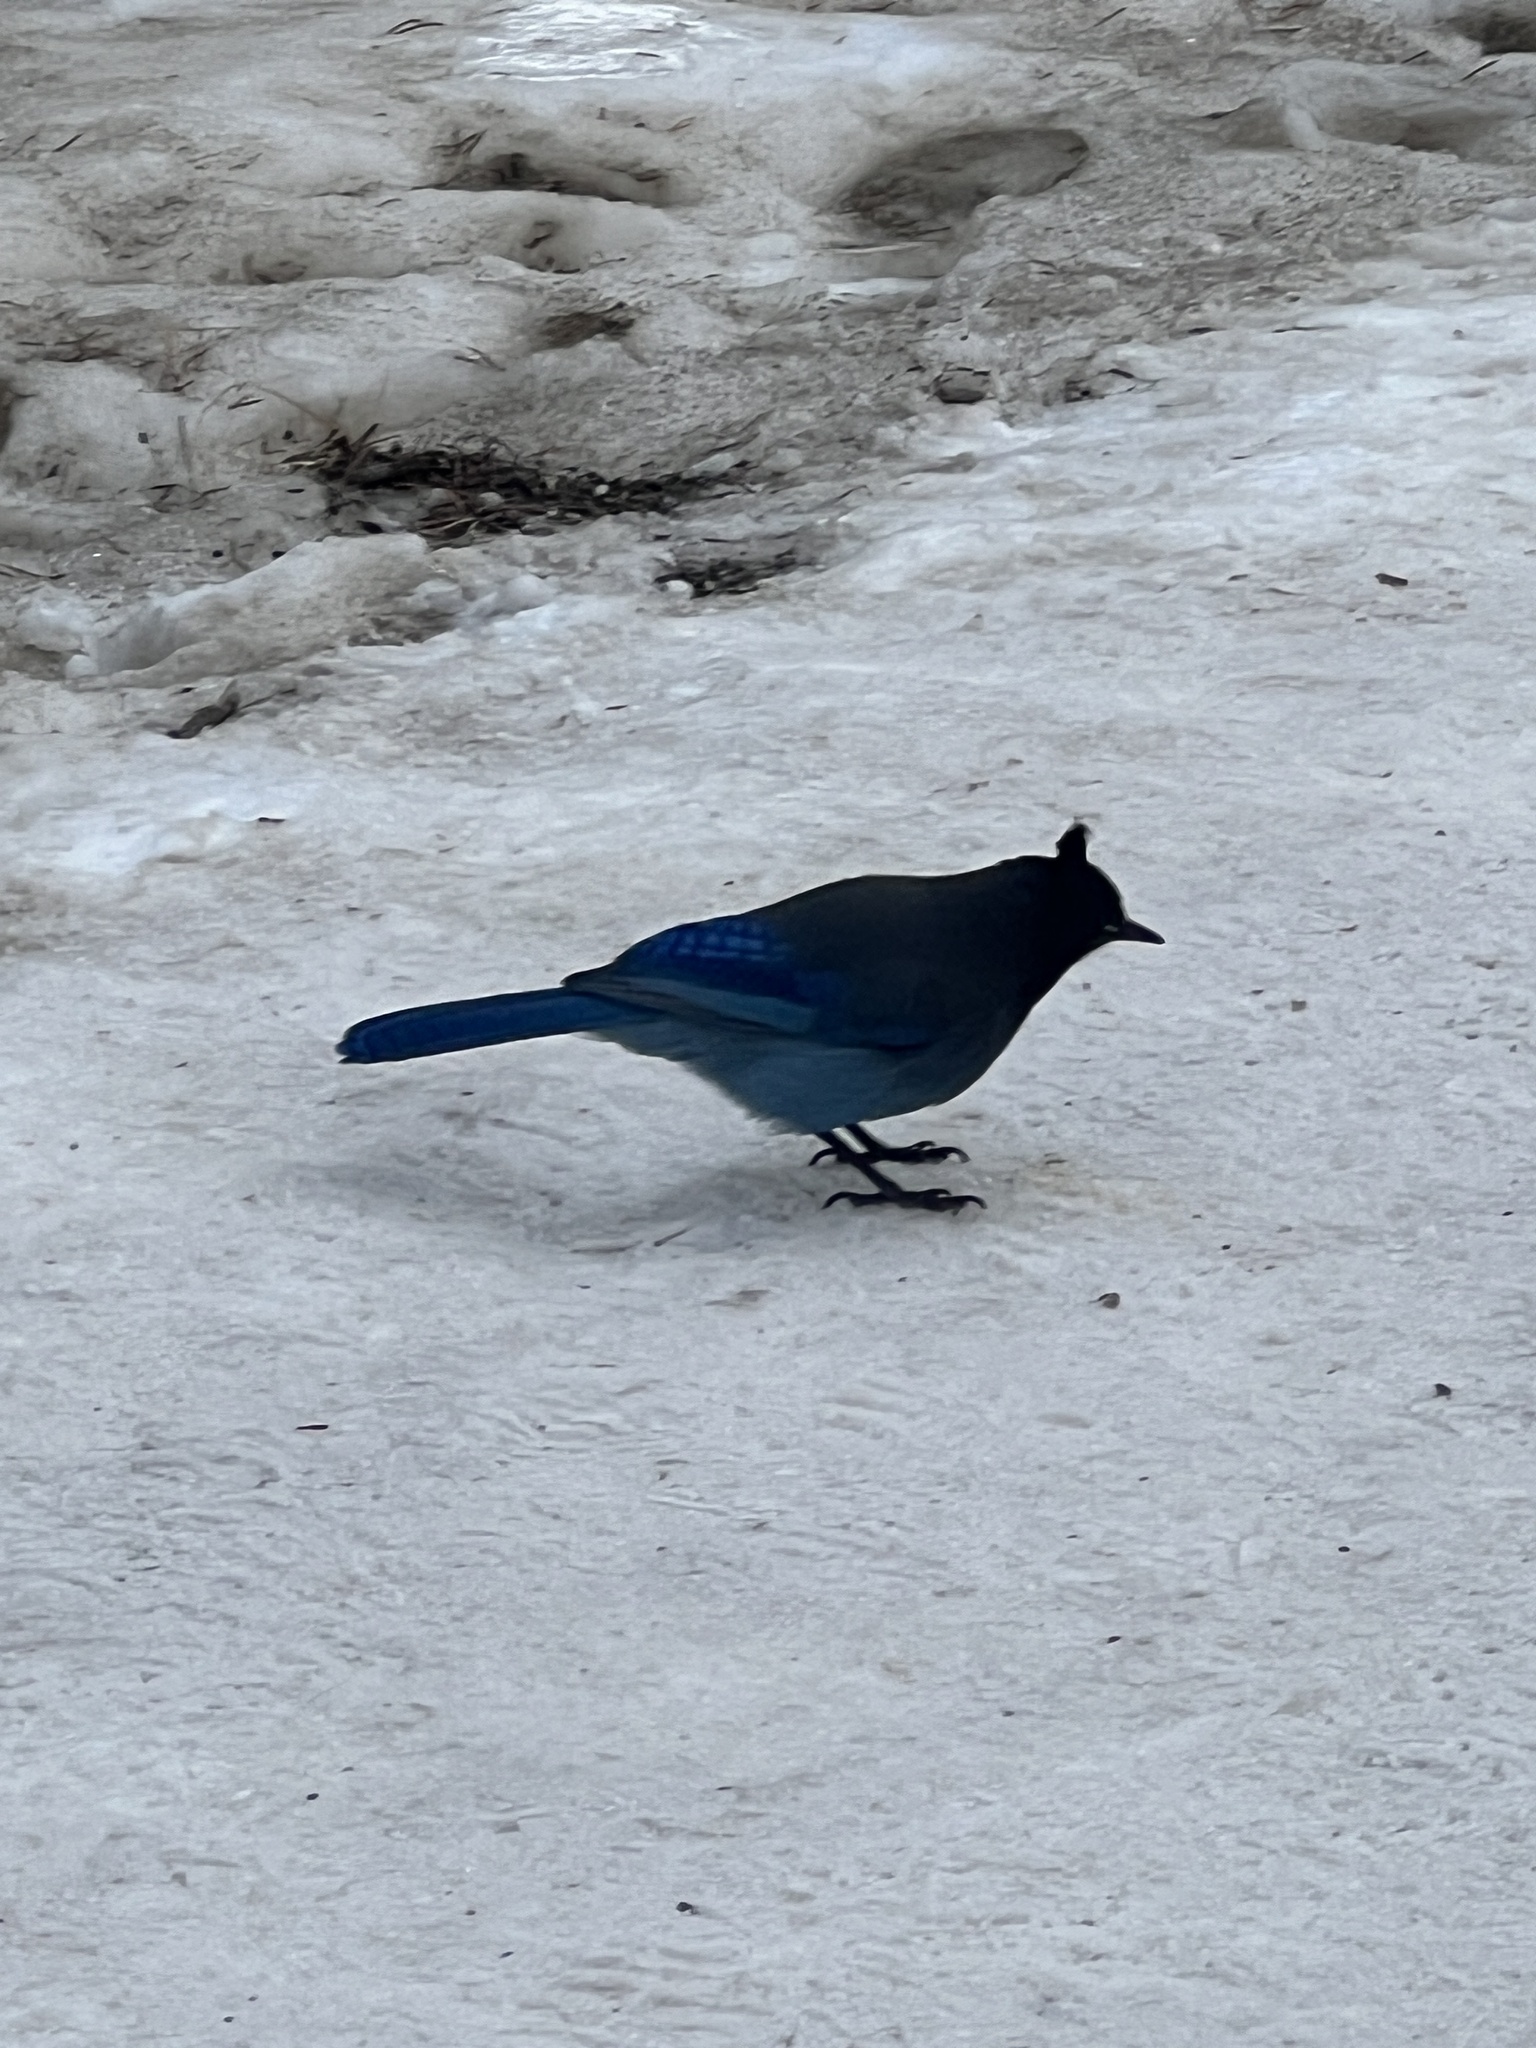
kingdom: Animalia
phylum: Chordata
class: Aves
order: Passeriformes
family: Corvidae
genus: Cyanocitta
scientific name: Cyanocitta stelleri
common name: Steller's jay
